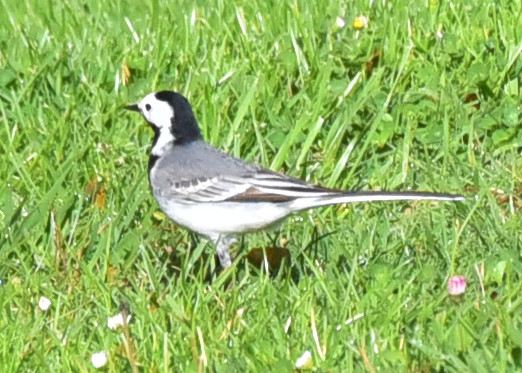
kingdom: Animalia
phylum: Chordata
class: Aves
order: Passeriformes
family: Motacillidae
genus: Motacilla
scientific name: Motacilla alba
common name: White wagtail
